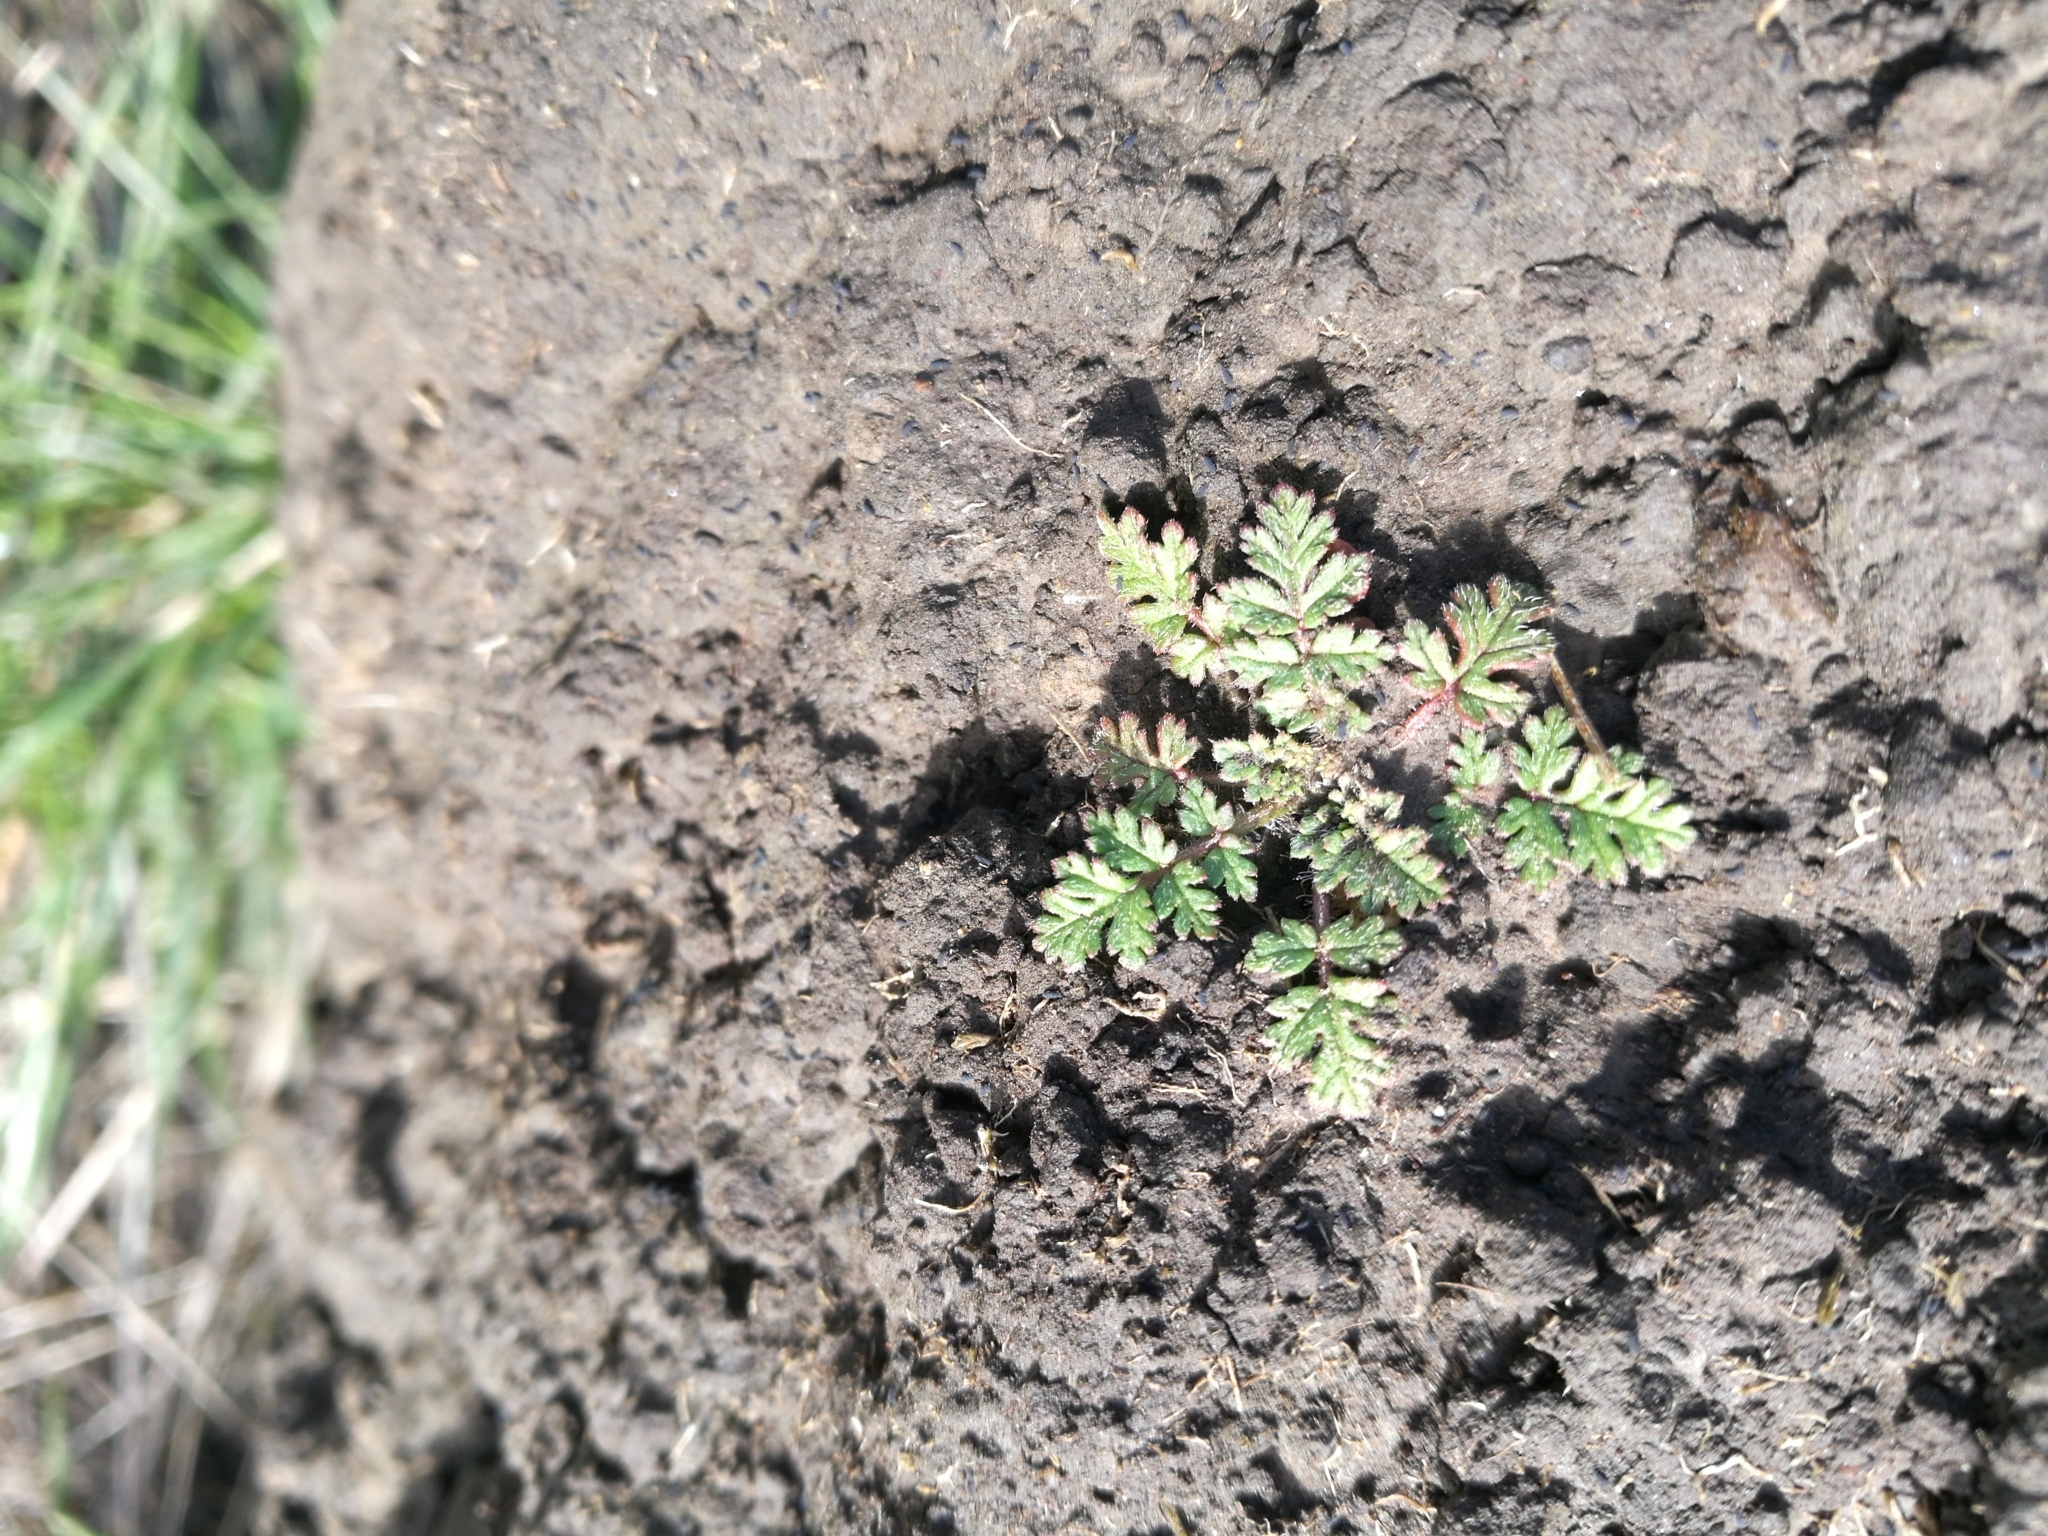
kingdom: Plantae
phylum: Tracheophyta
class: Magnoliopsida
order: Geraniales
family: Geraniaceae
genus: Erodium
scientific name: Erodium cicutarium
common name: Common stork's-bill
